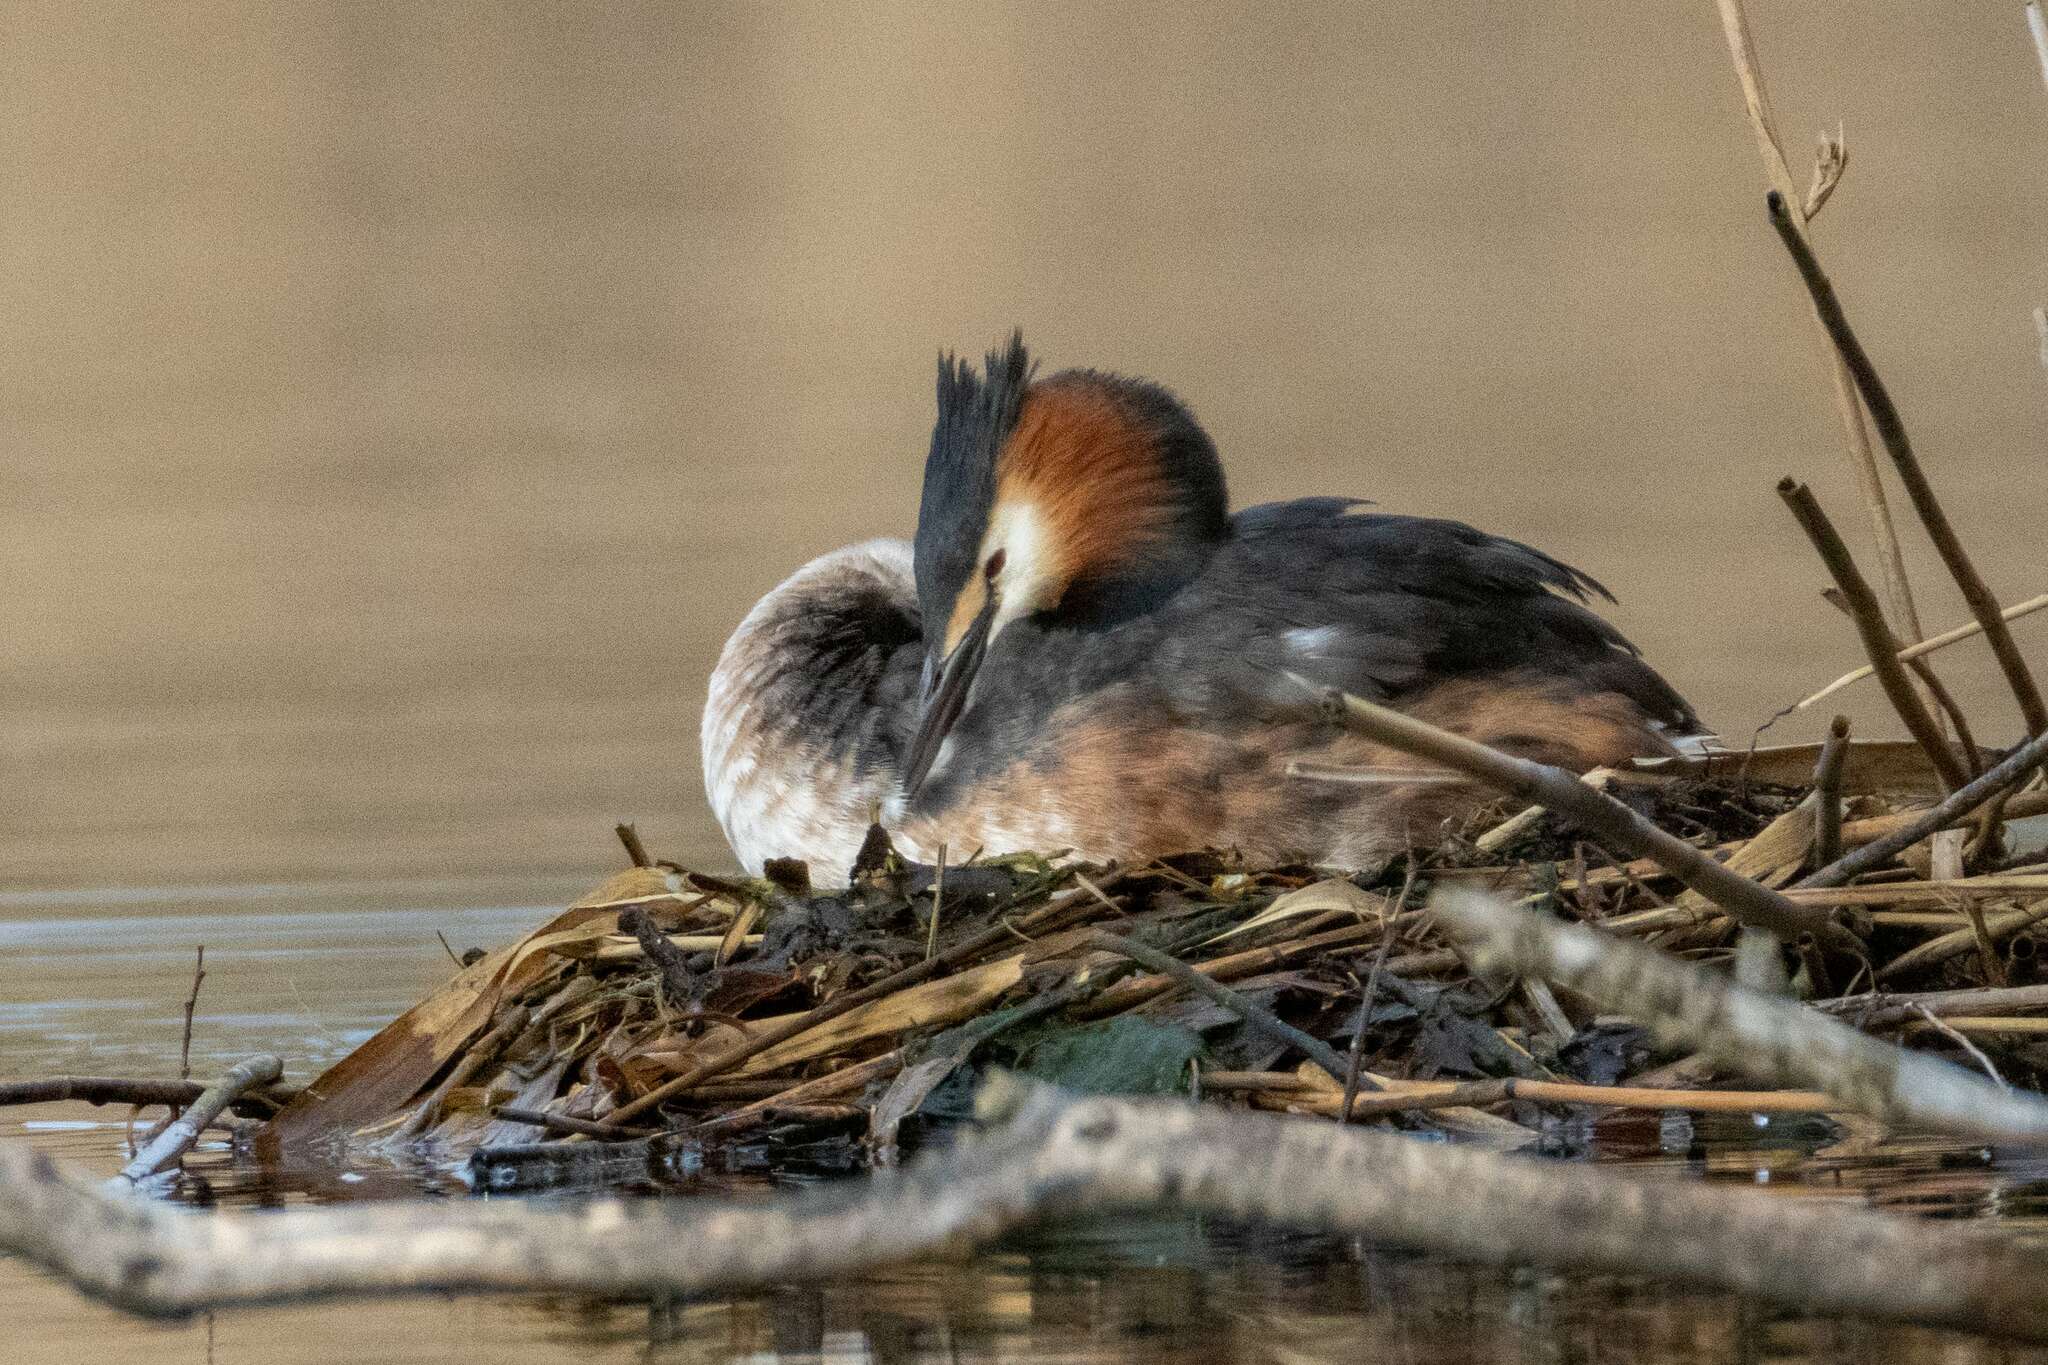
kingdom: Animalia
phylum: Chordata
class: Aves
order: Podicipediformes
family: Podicipedidae
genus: Podiceps
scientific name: Podiceps cristatus
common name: Great crested grebe
